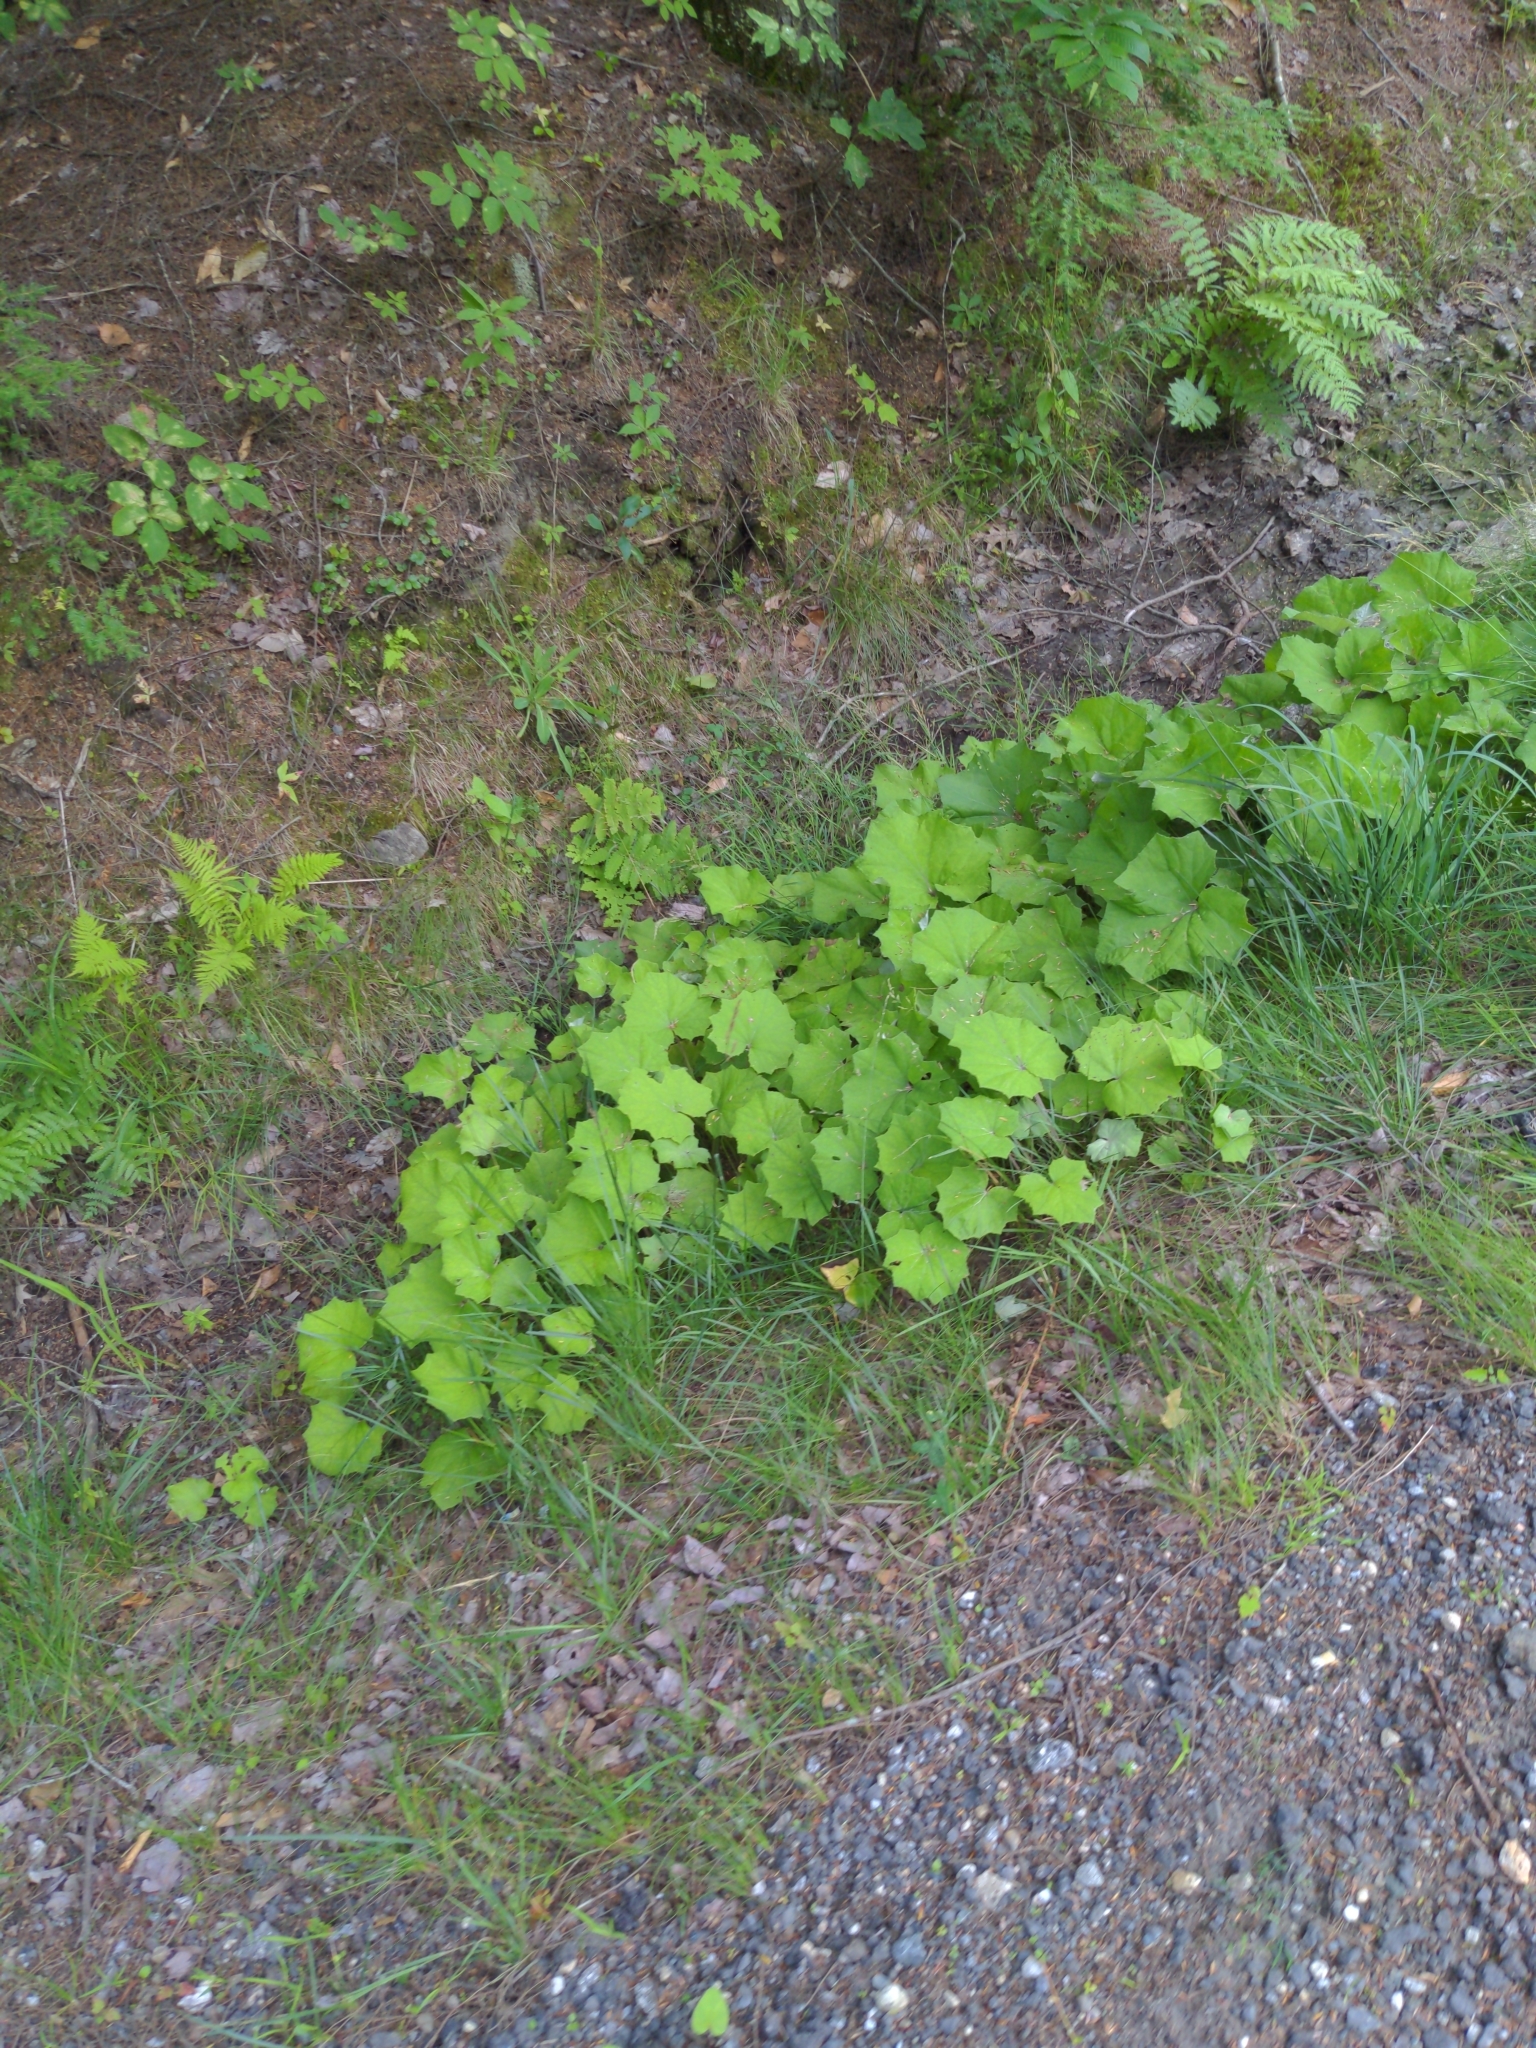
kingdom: Plantae
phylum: Tracheophyta
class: Magnoliopsida
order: Asterales
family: Asteraceae
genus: Tussilago
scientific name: Tussilago farfara
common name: Coltsfoot
